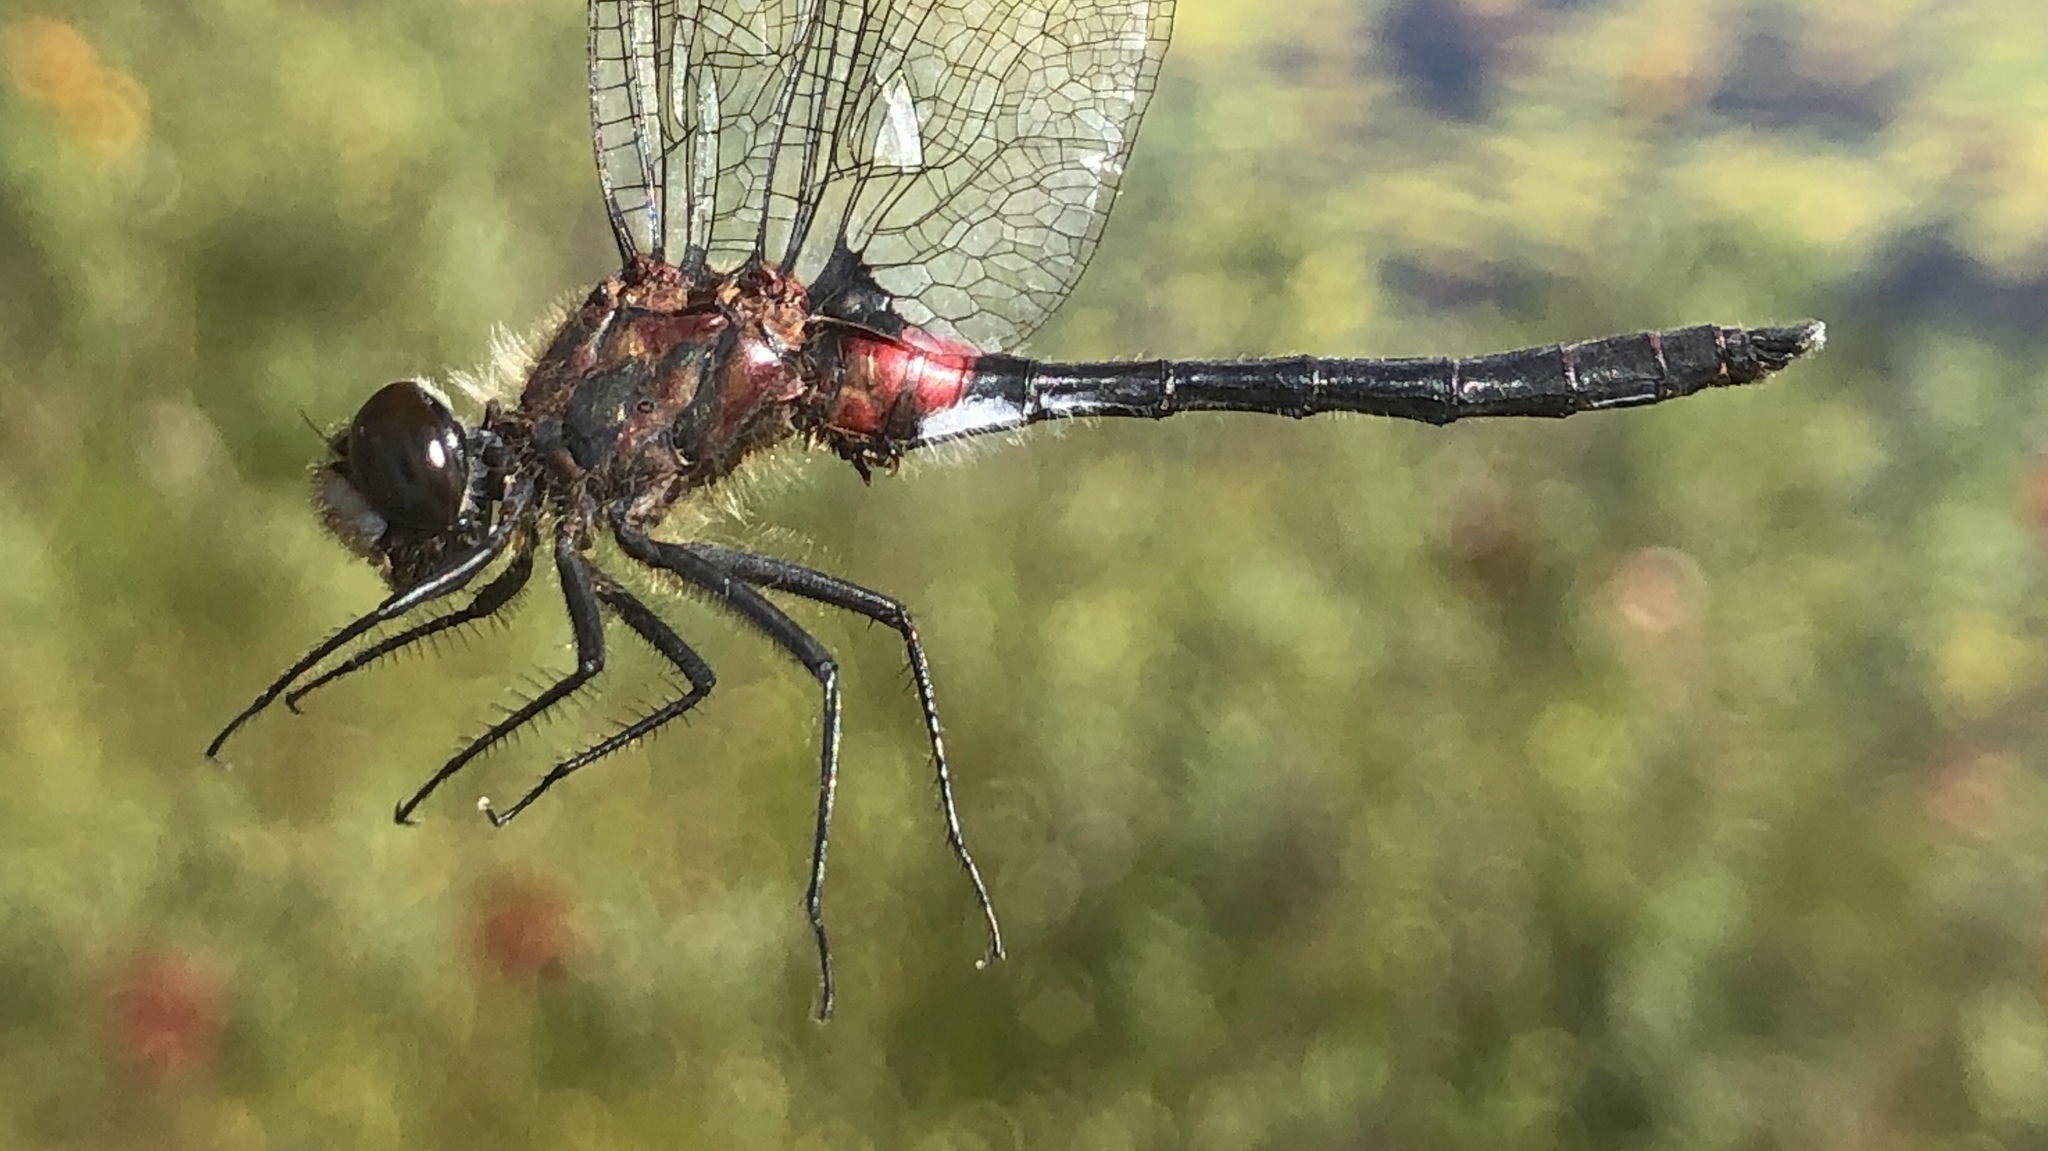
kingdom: Animalia
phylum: Arthropoda
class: Insecta
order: Odonata
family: Libellulidae
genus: Leucorrhinia
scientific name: Leucorrhinia glacialis
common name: Crimson-ringed whiteface
